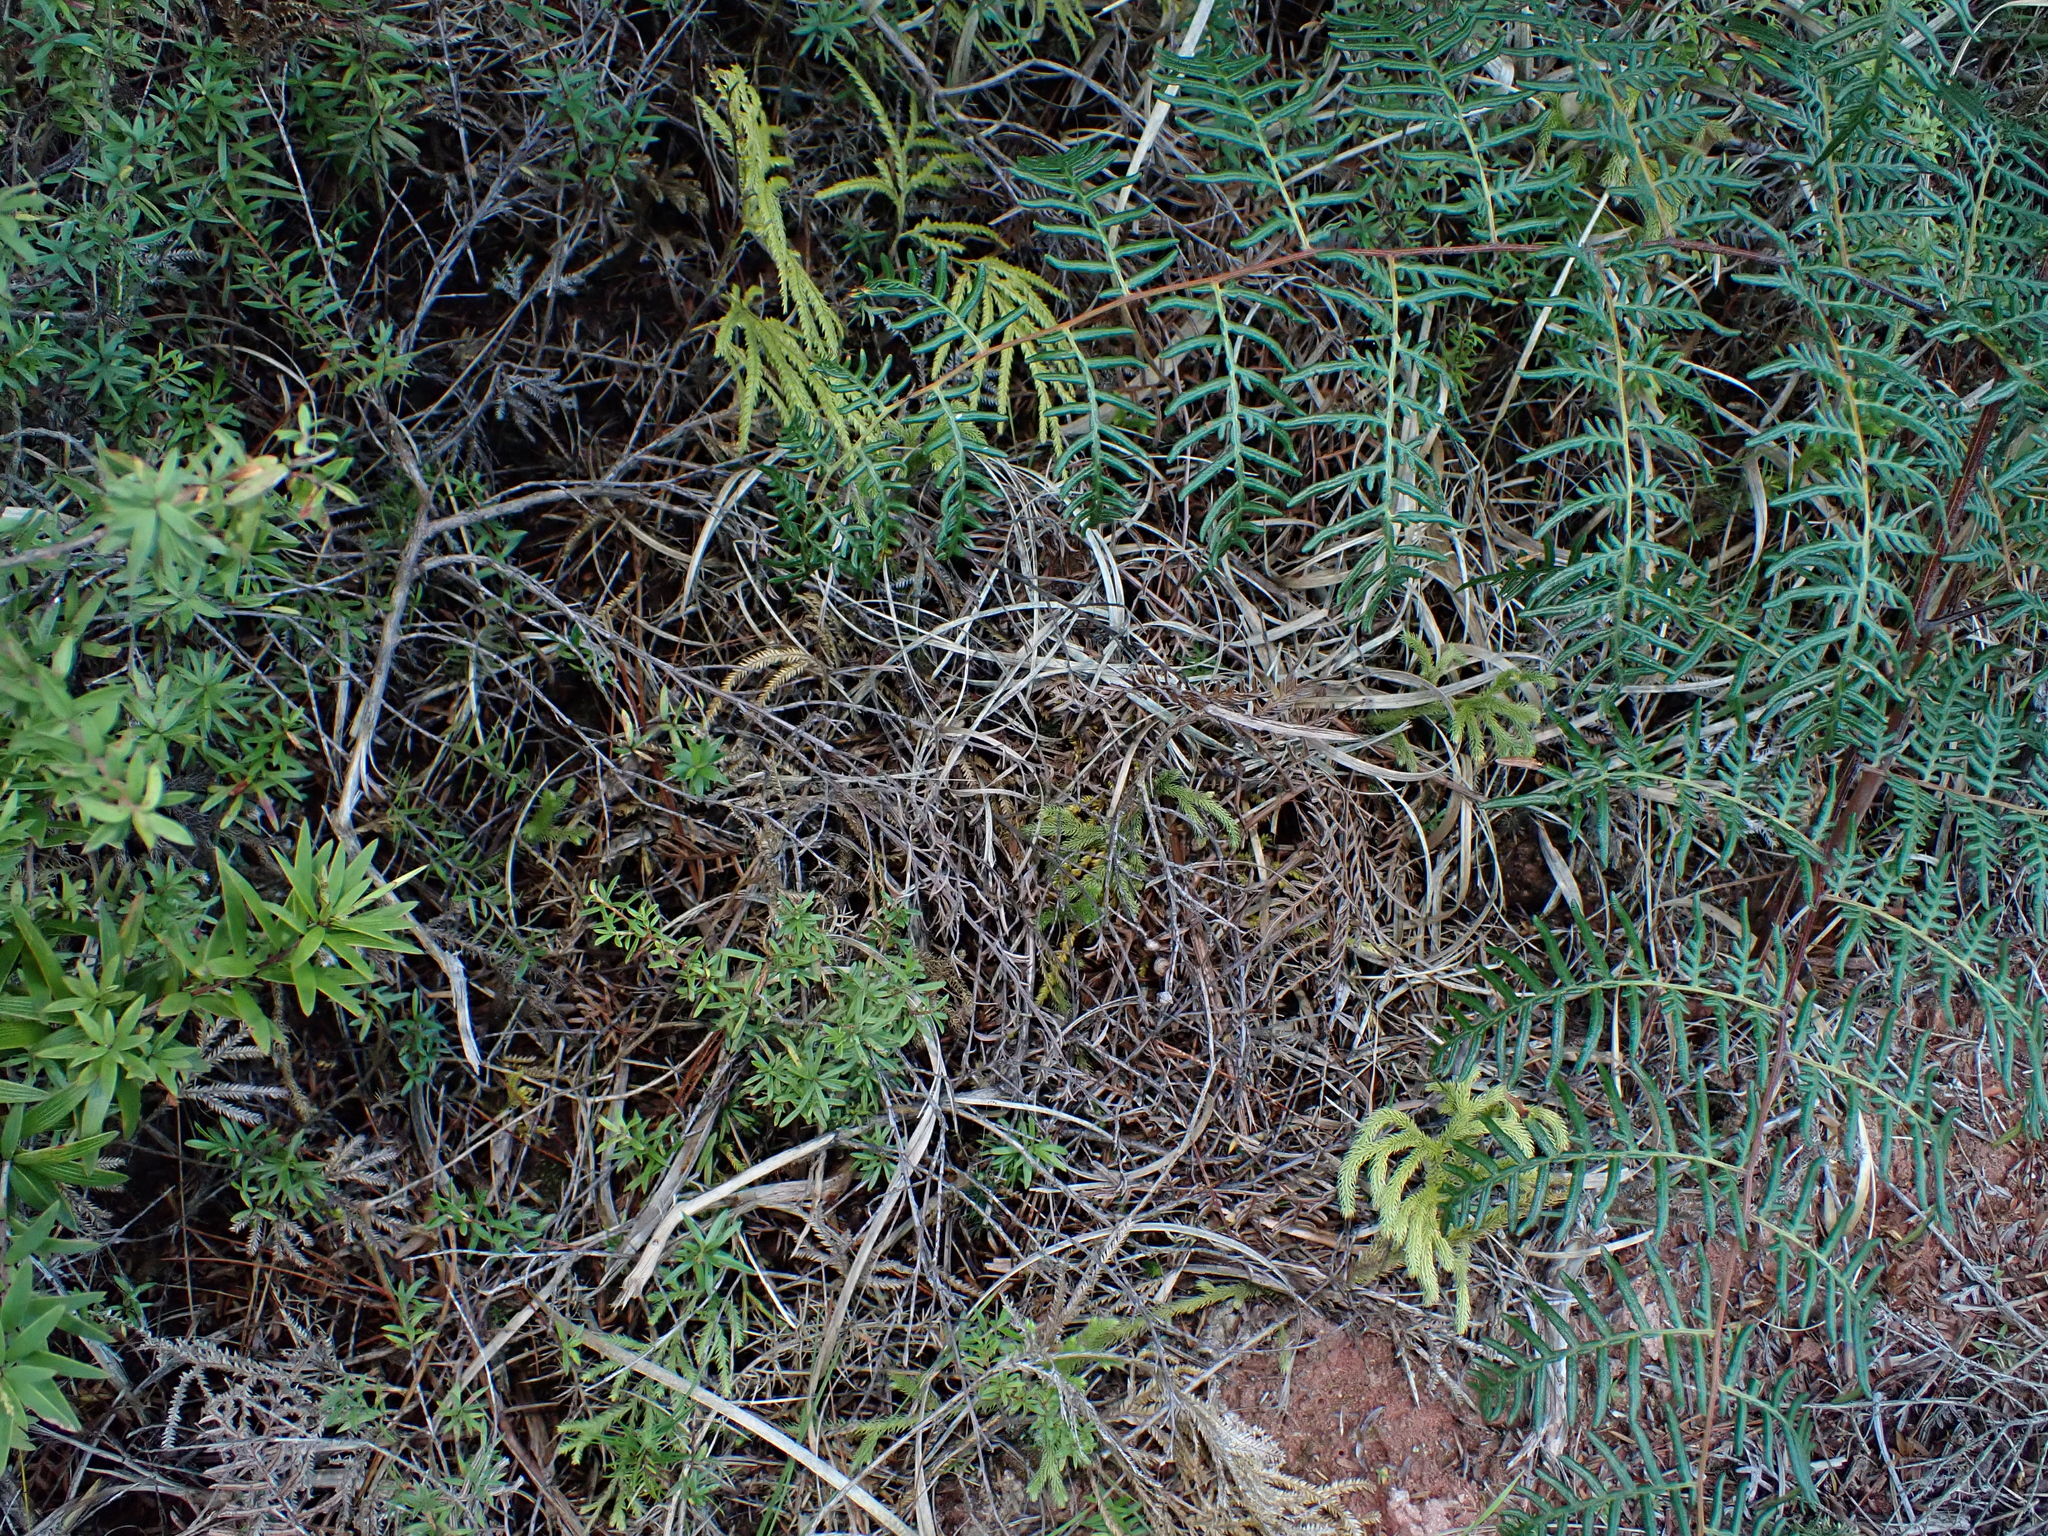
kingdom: Plantae
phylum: Tracheophyta
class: Lycopodiopsida
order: Lycopodiales
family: Lycopodiaceae
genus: Lycopodium
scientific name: Lycopodium volubile
